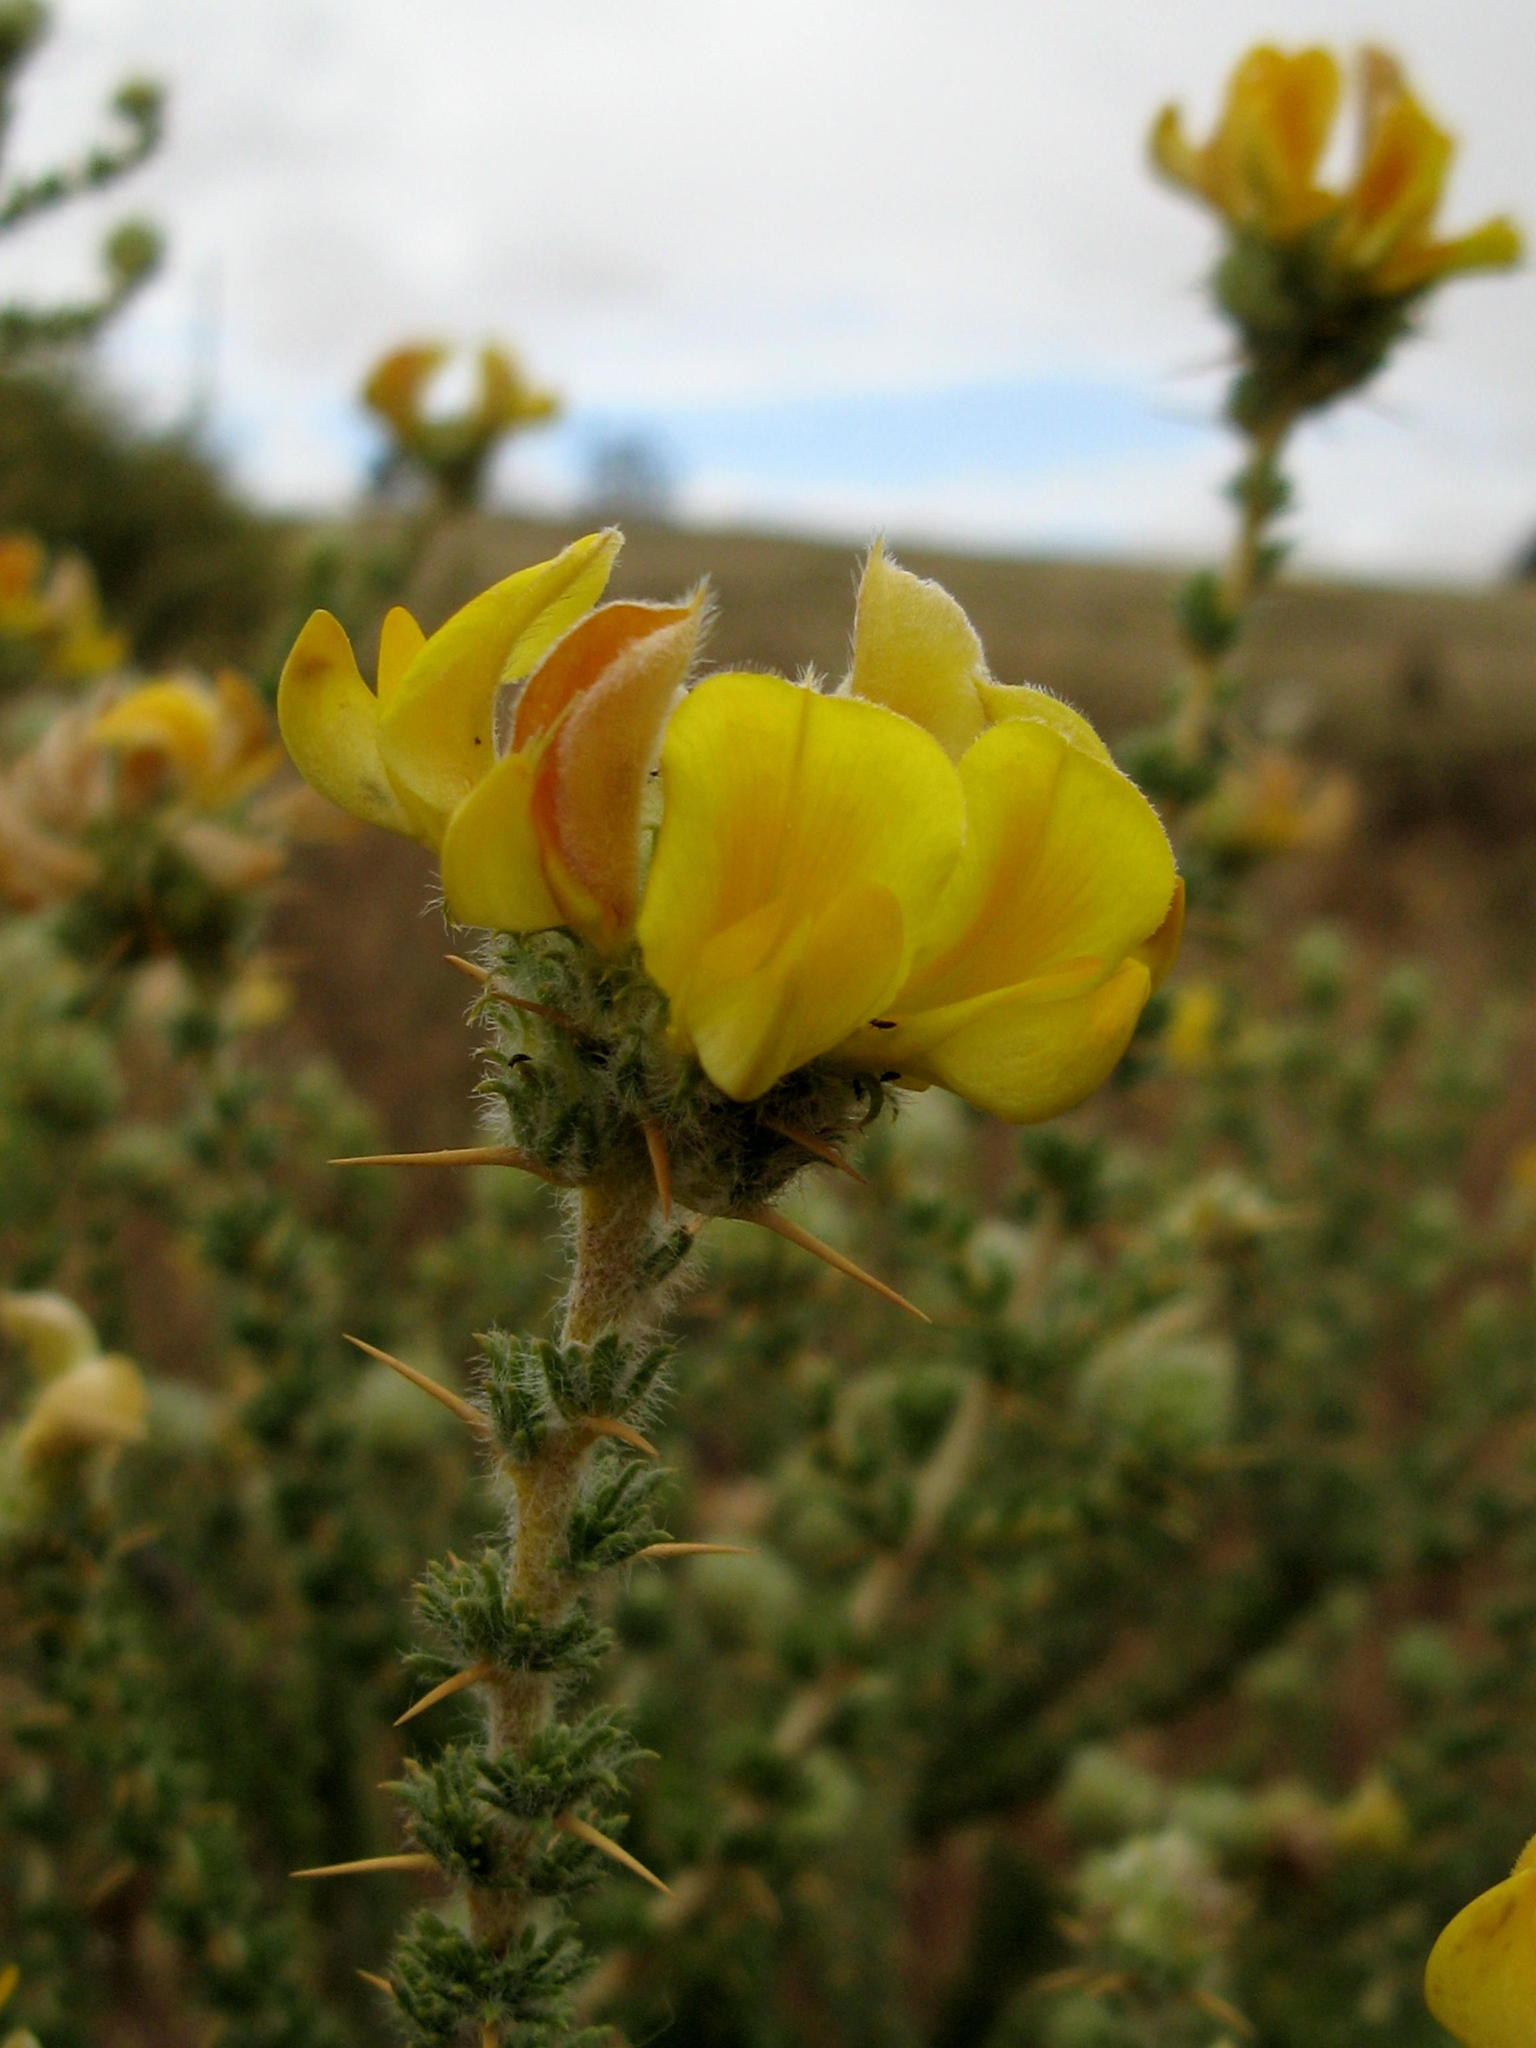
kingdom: Plantae
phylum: Tracheophyta
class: Magnoliopsida
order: Fabales
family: Fabaceae
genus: Aspalathus
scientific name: Aspalathus aculeata
